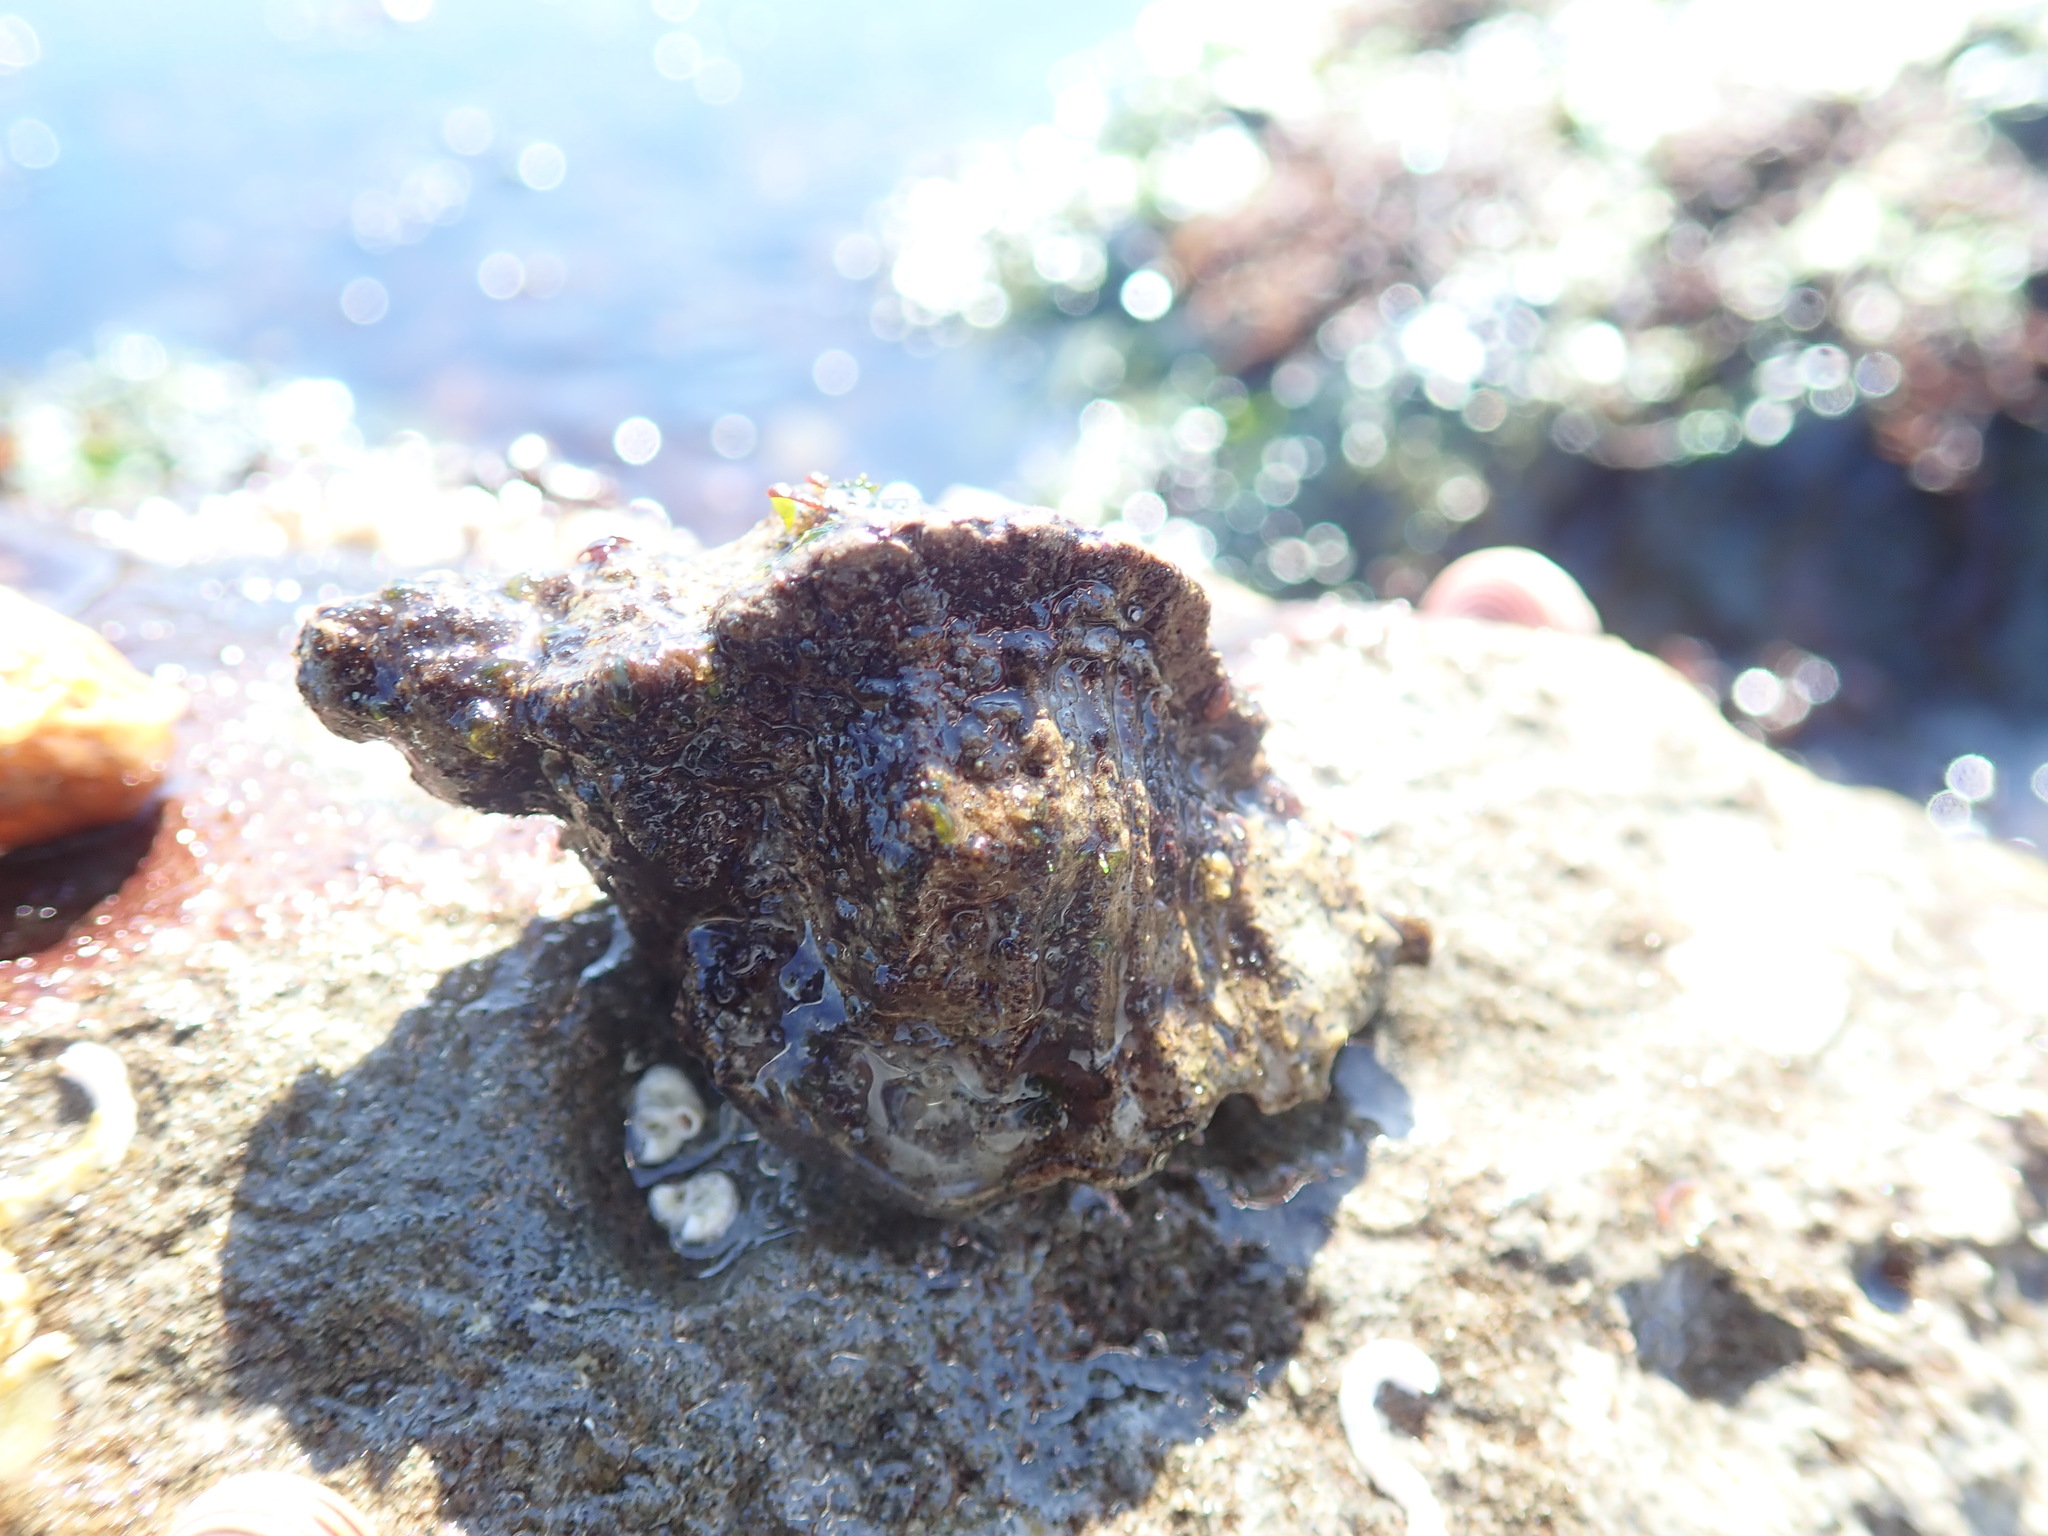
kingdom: Animalia
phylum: Mollusca
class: Gastropoda
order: Neogastropoda
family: Muricidae
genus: Ceratostoma
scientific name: Ceratostoma foliatum
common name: Foliate thorn purpura
